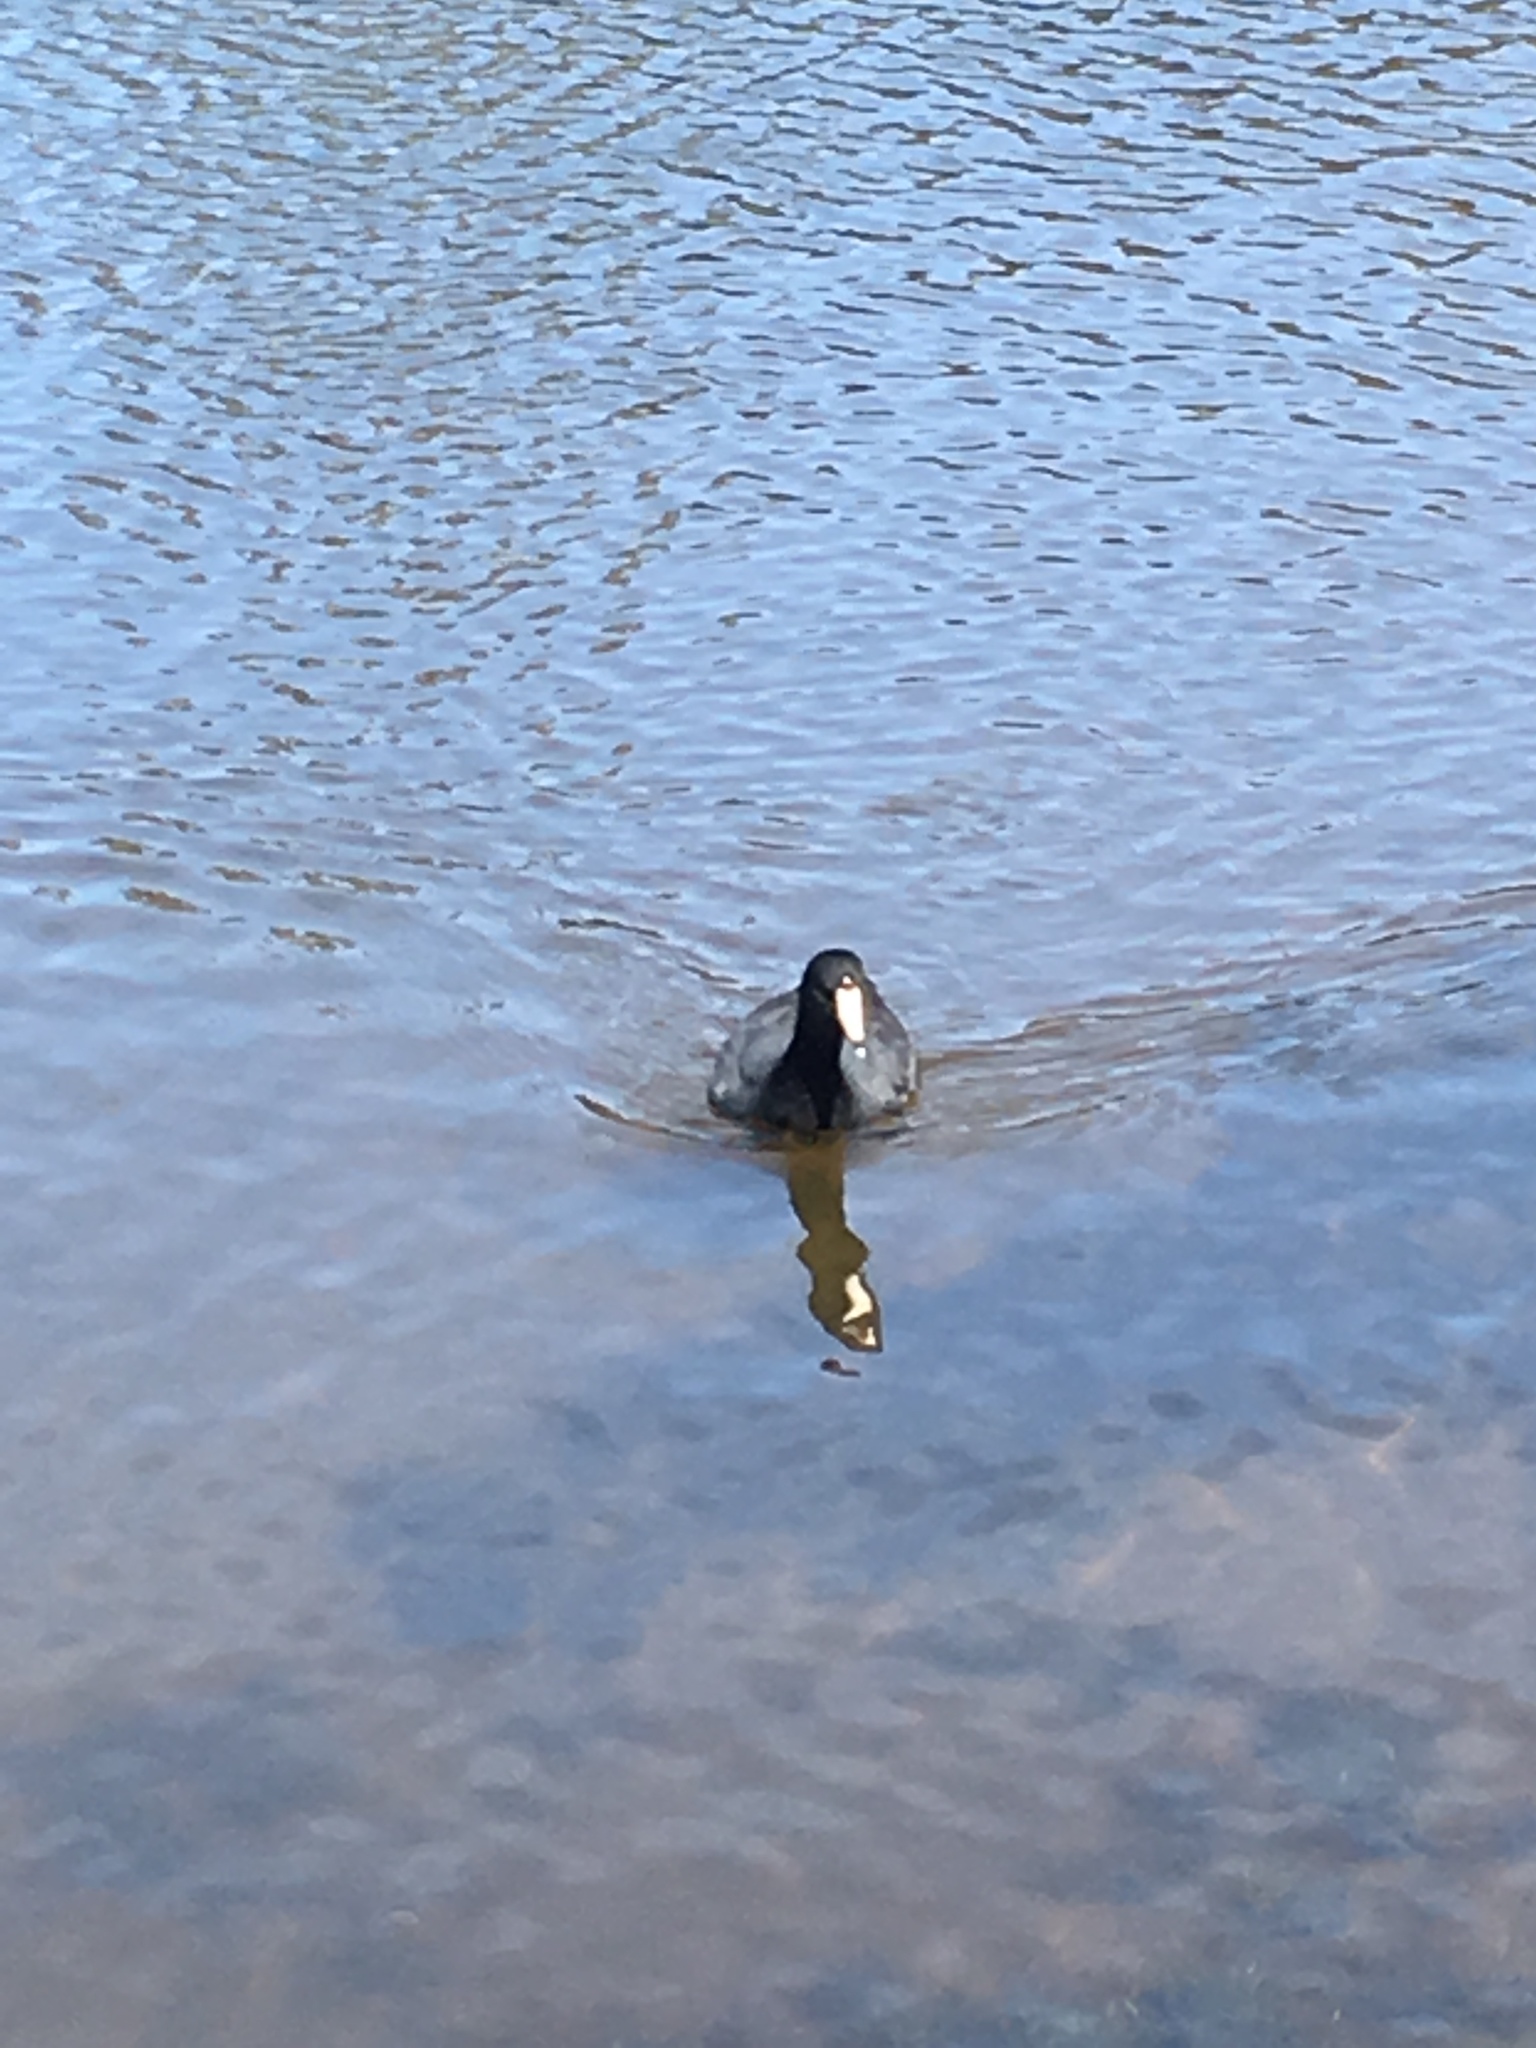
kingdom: Animalia
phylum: Chordata
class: Aves
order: Gruiformes
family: Rallidae
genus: Fulica
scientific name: Fulica americana
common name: American coot
